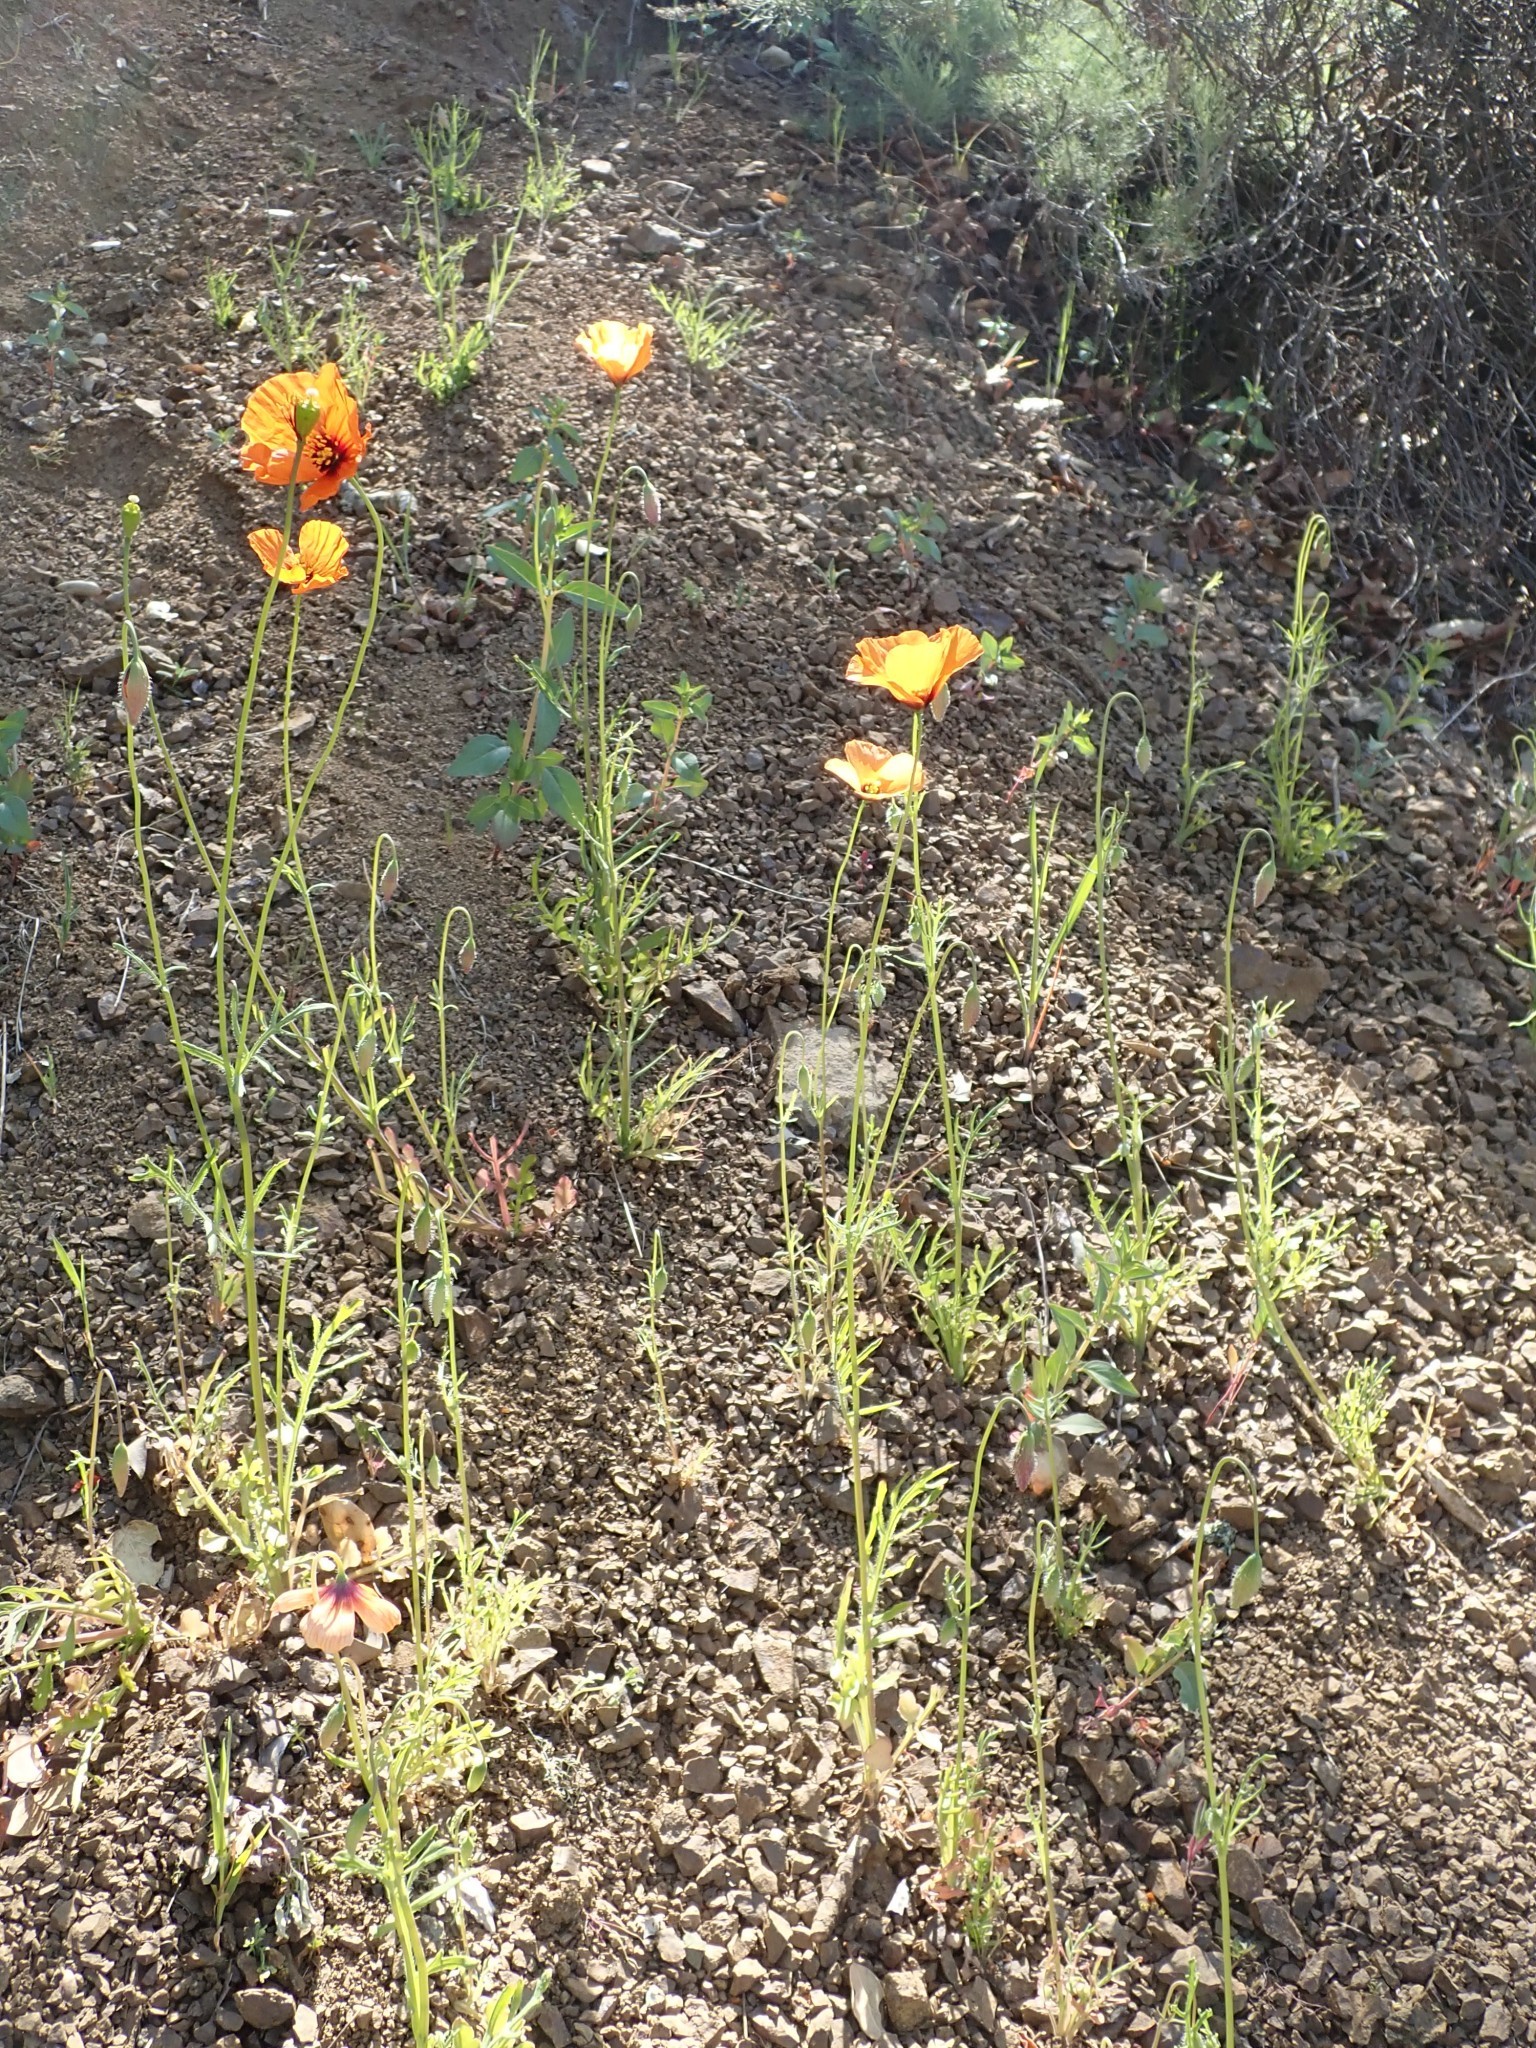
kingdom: Plantae
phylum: Tracheophyta
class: Magnoliopsida
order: Ranunculales
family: Papaveraceae
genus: Stylomecon
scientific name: Stylomecon heterophylla
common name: Flaming-poppy
